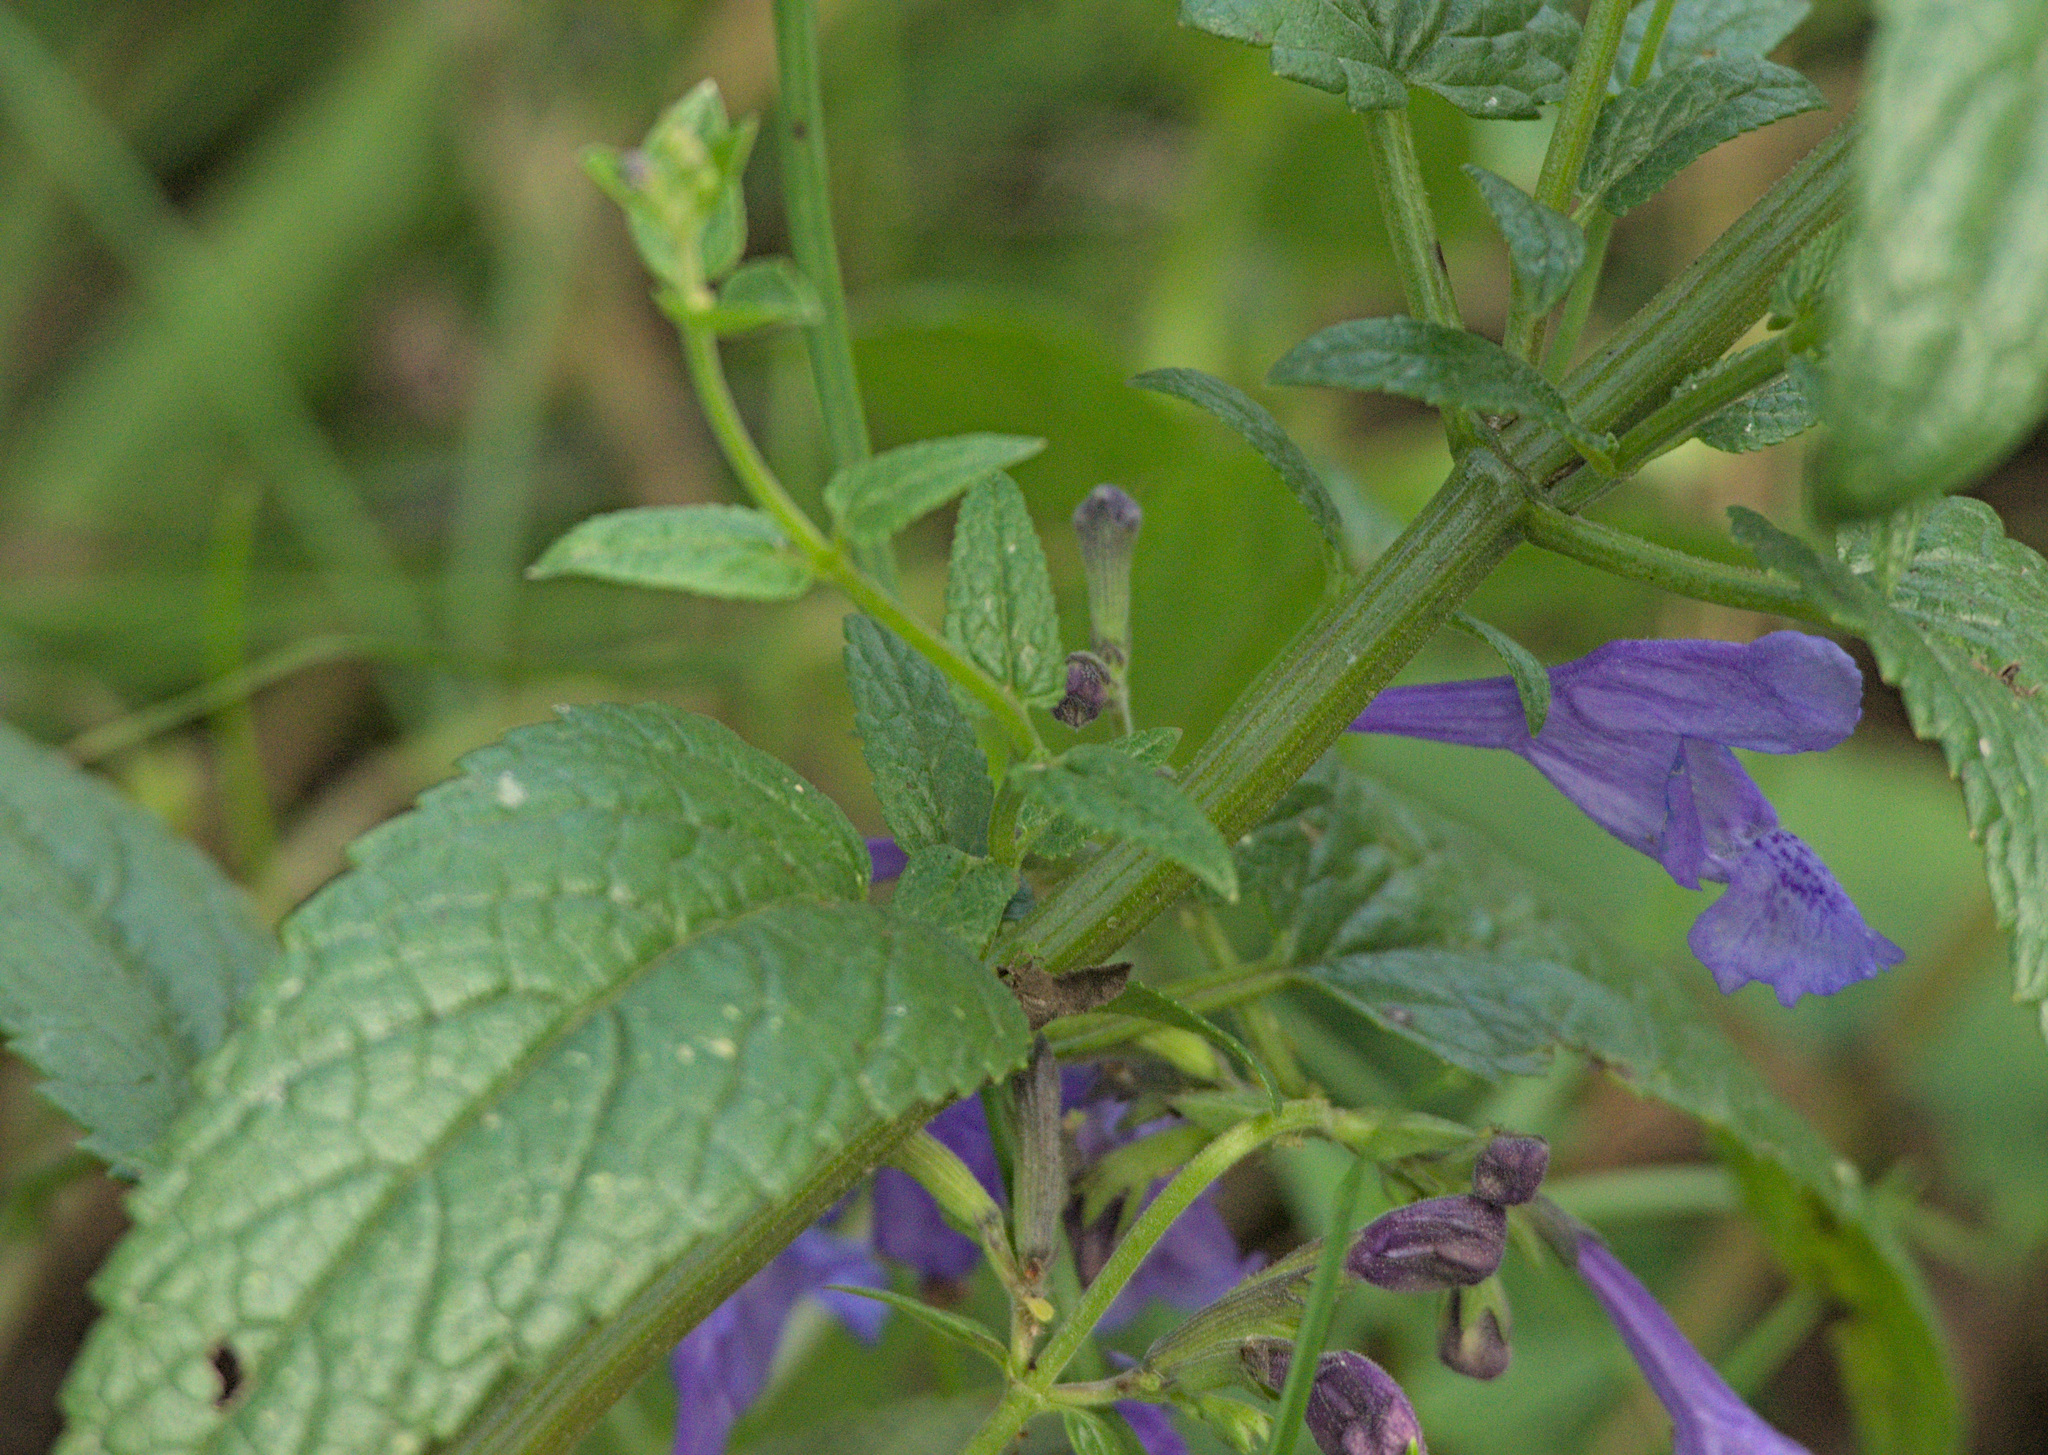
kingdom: Plantae
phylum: Tracheophyta
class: Magnoliopsida
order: Lamiales
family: Lamiaceae
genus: Nepeta
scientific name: Nepeta sibirica
